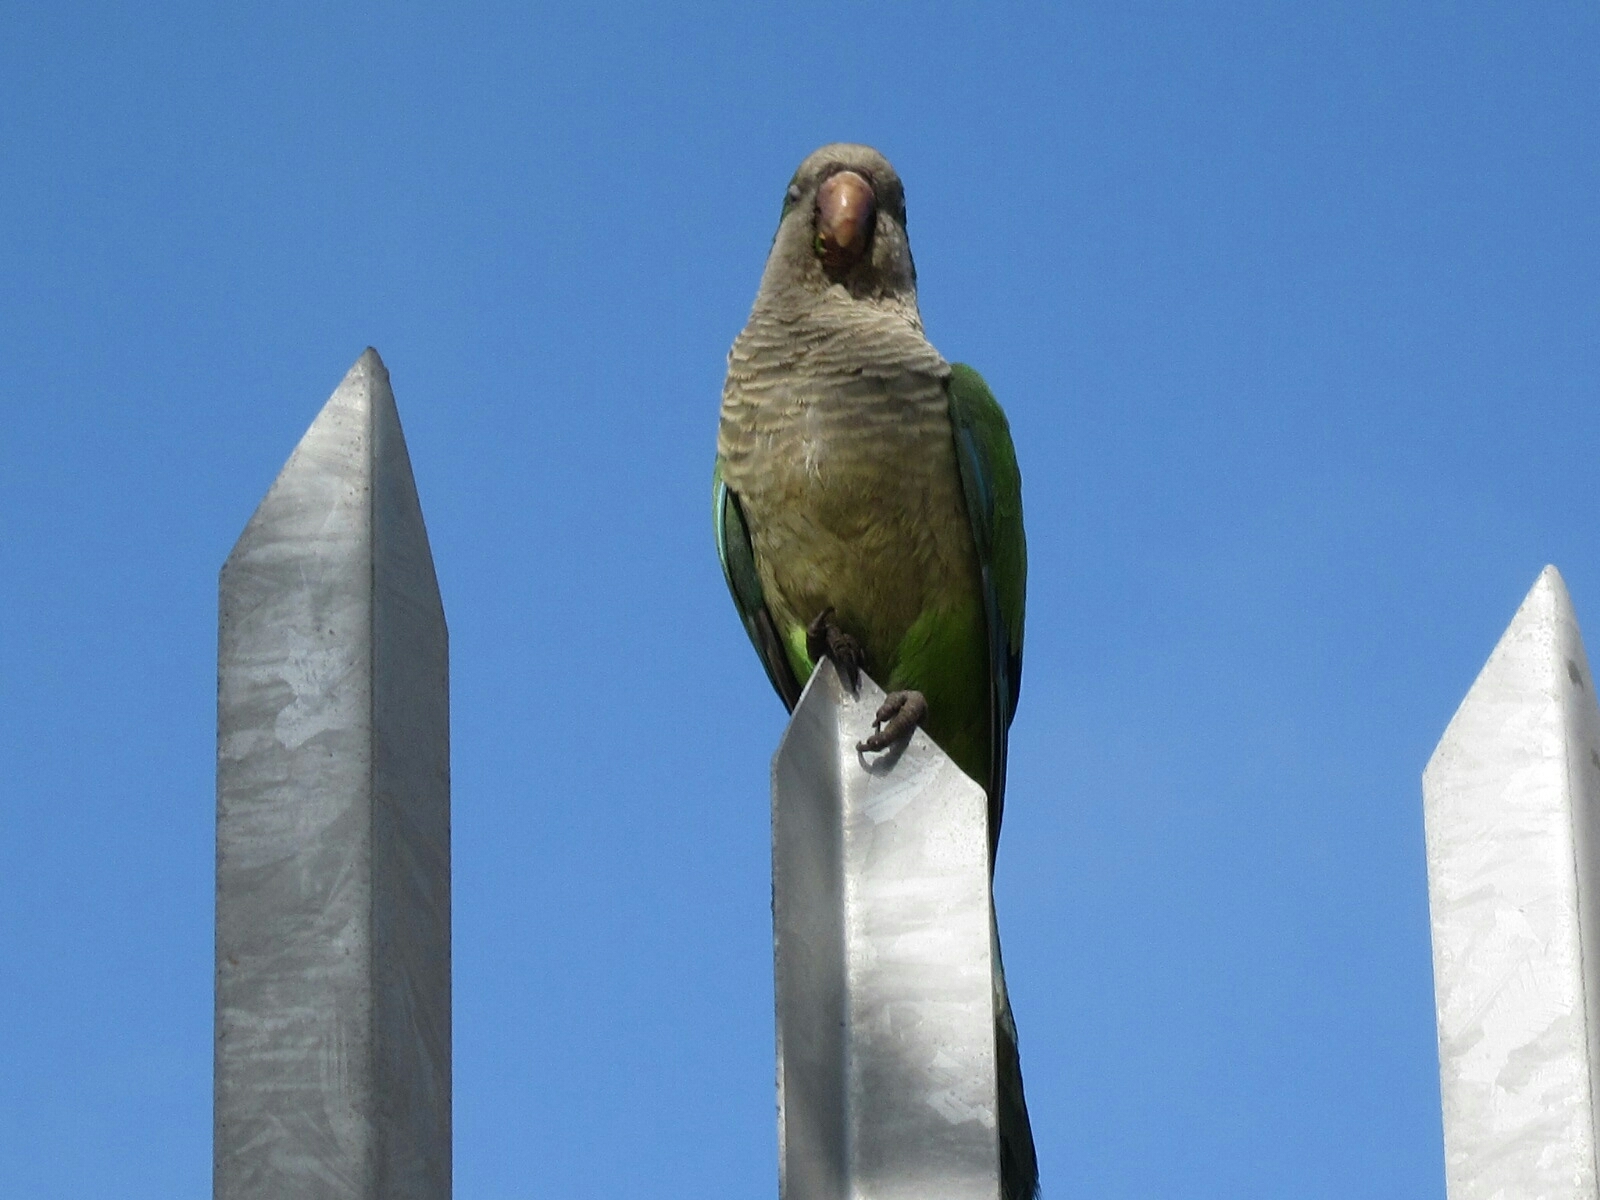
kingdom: Animalia
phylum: Chordata
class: Aves
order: Psittaciformes
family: Psittacidae
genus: Myiopsitta
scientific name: Myiopsitta monachus
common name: Monk parakeet
